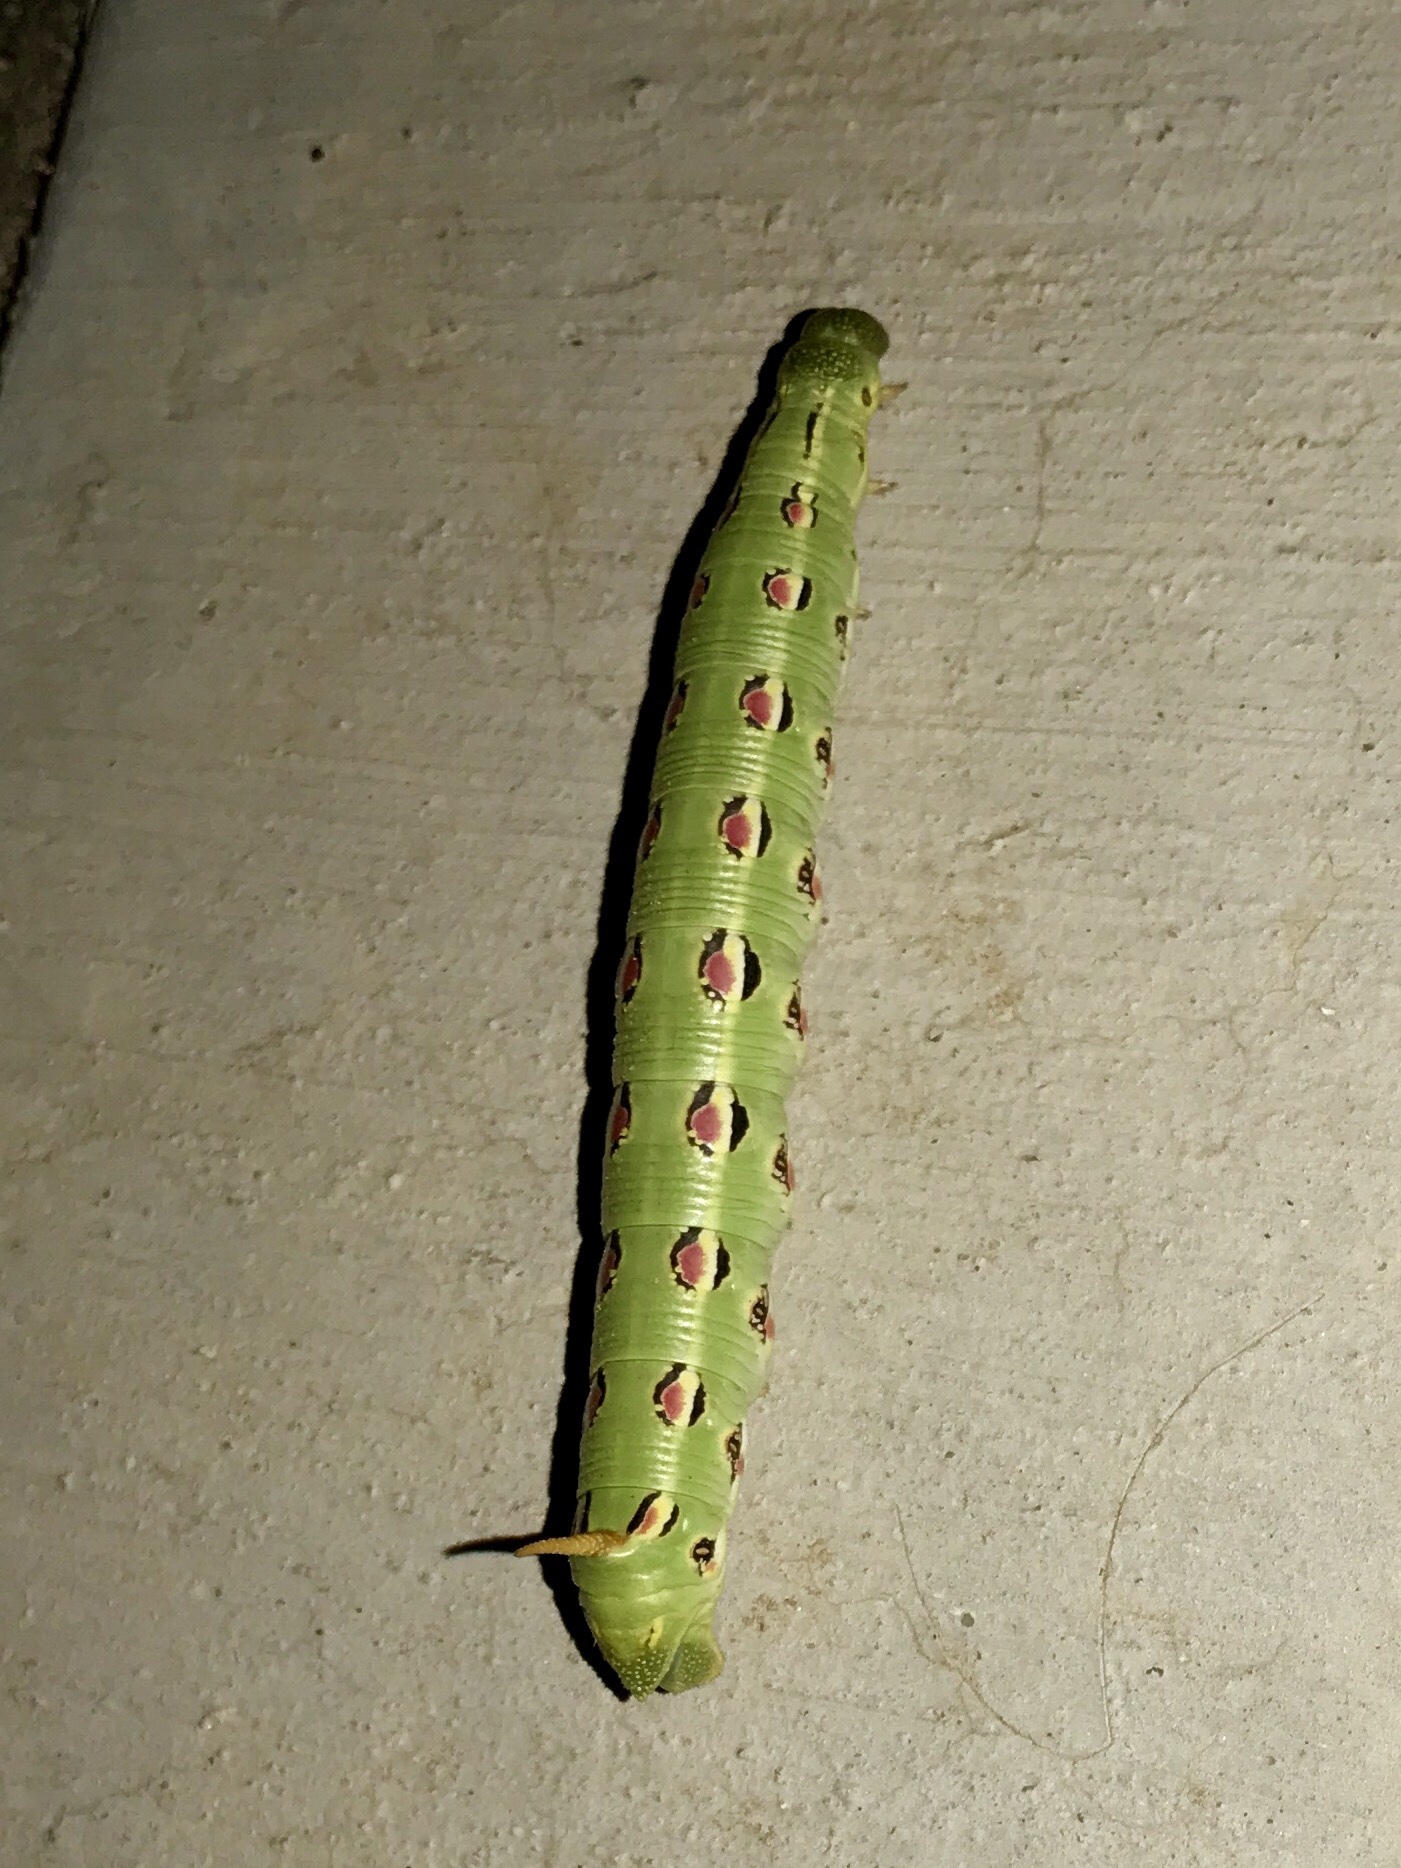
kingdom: Animalia
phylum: Arthropoda
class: Insecta
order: Lepidoptera
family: Sphingidae
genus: Hyles
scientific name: Hyles lineata
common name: White-lined sphinx
